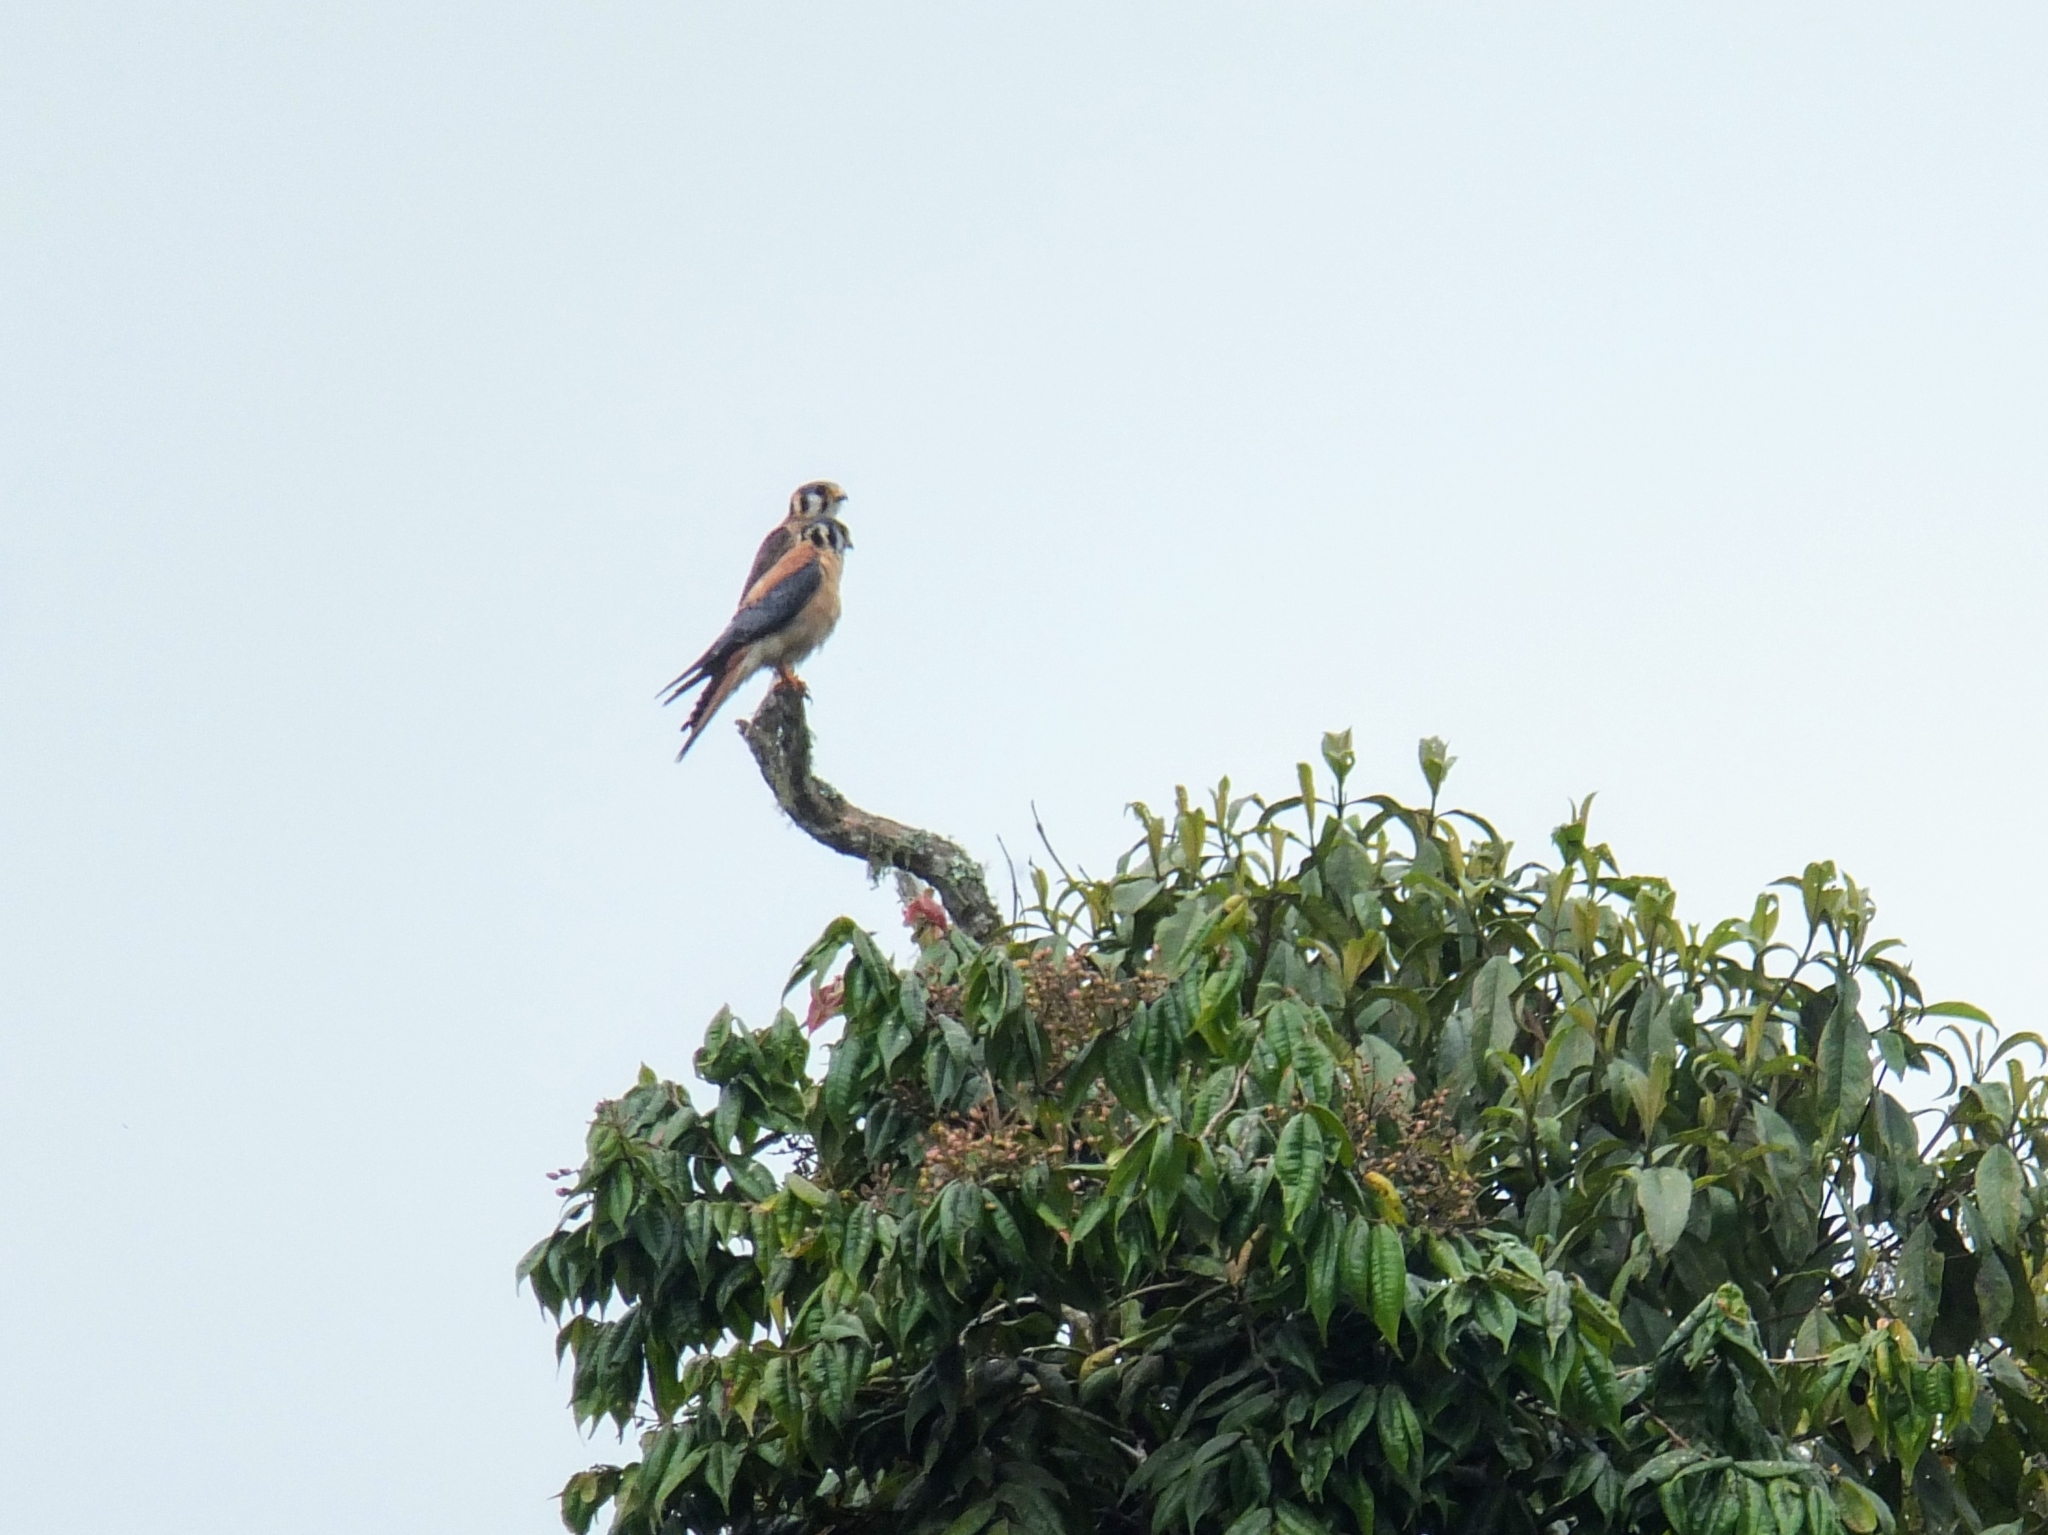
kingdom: Animalia
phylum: Chordata
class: Aves
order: Falconiformes
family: Falconidae
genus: Falco
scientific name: Falco sparverius
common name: American kestrel
